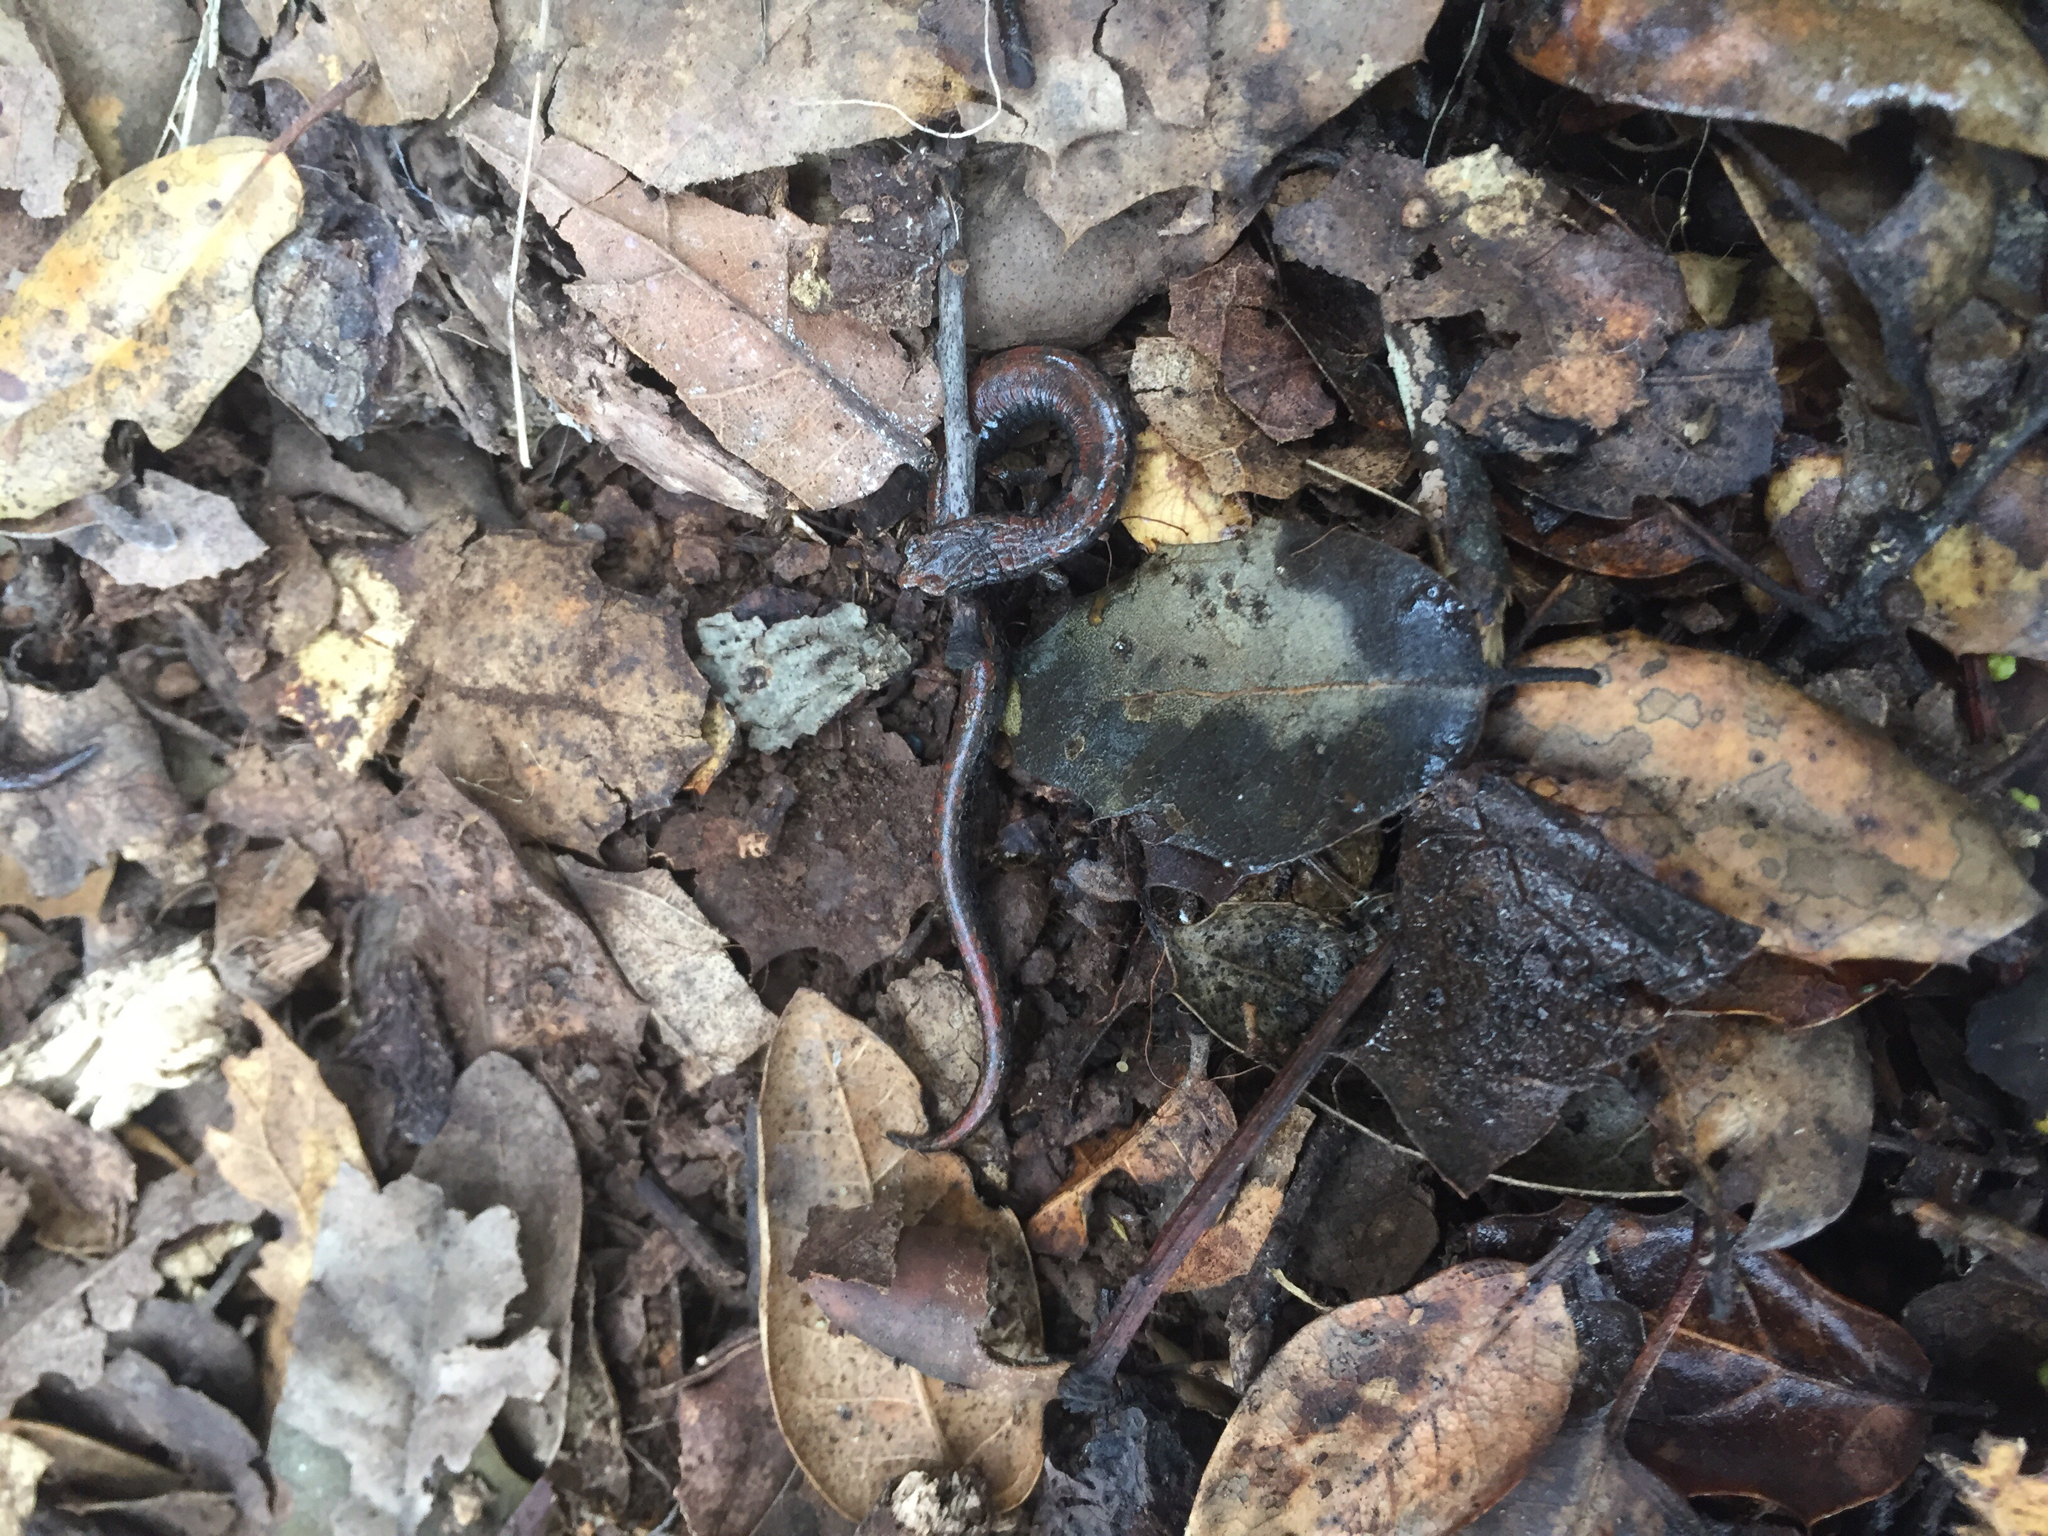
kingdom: Animalia
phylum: Chordata
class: Amphibia
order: Caudata
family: Plethodontidae
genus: Batrachoseps
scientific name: Batrachoseps attenuatus
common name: California slender salamander
